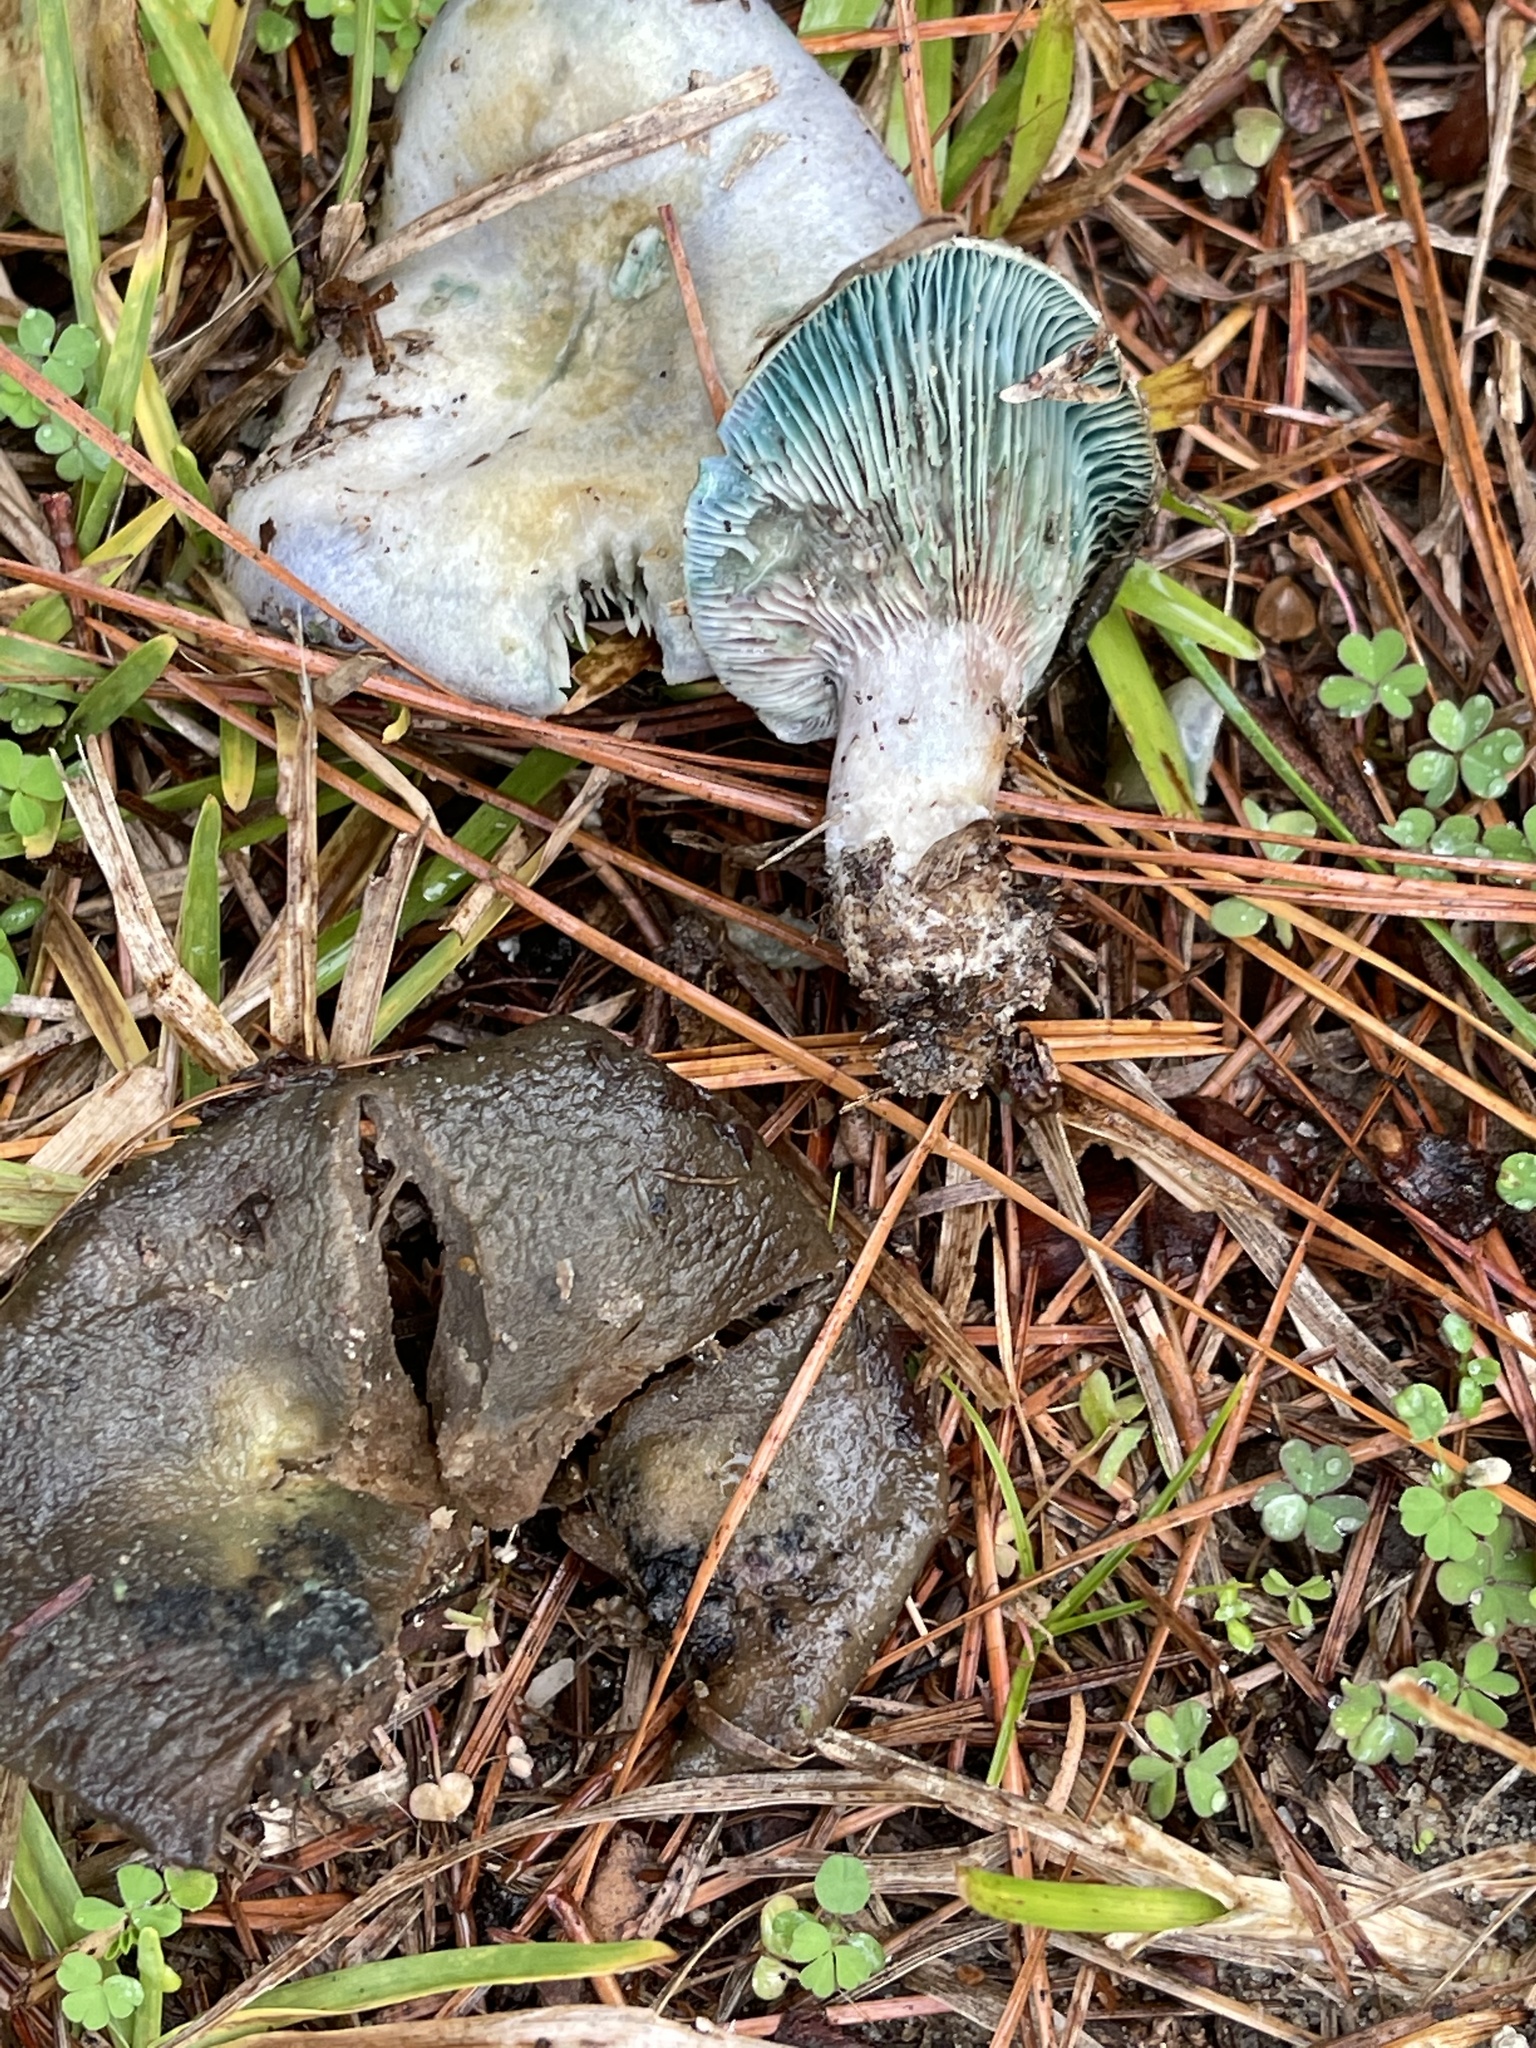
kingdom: Fungi
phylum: Basidiomycota
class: Agaricomycetes
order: Russulales
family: Russulaceae
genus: Lactarius
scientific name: Lactarius indigo
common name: Indigo milk cap
